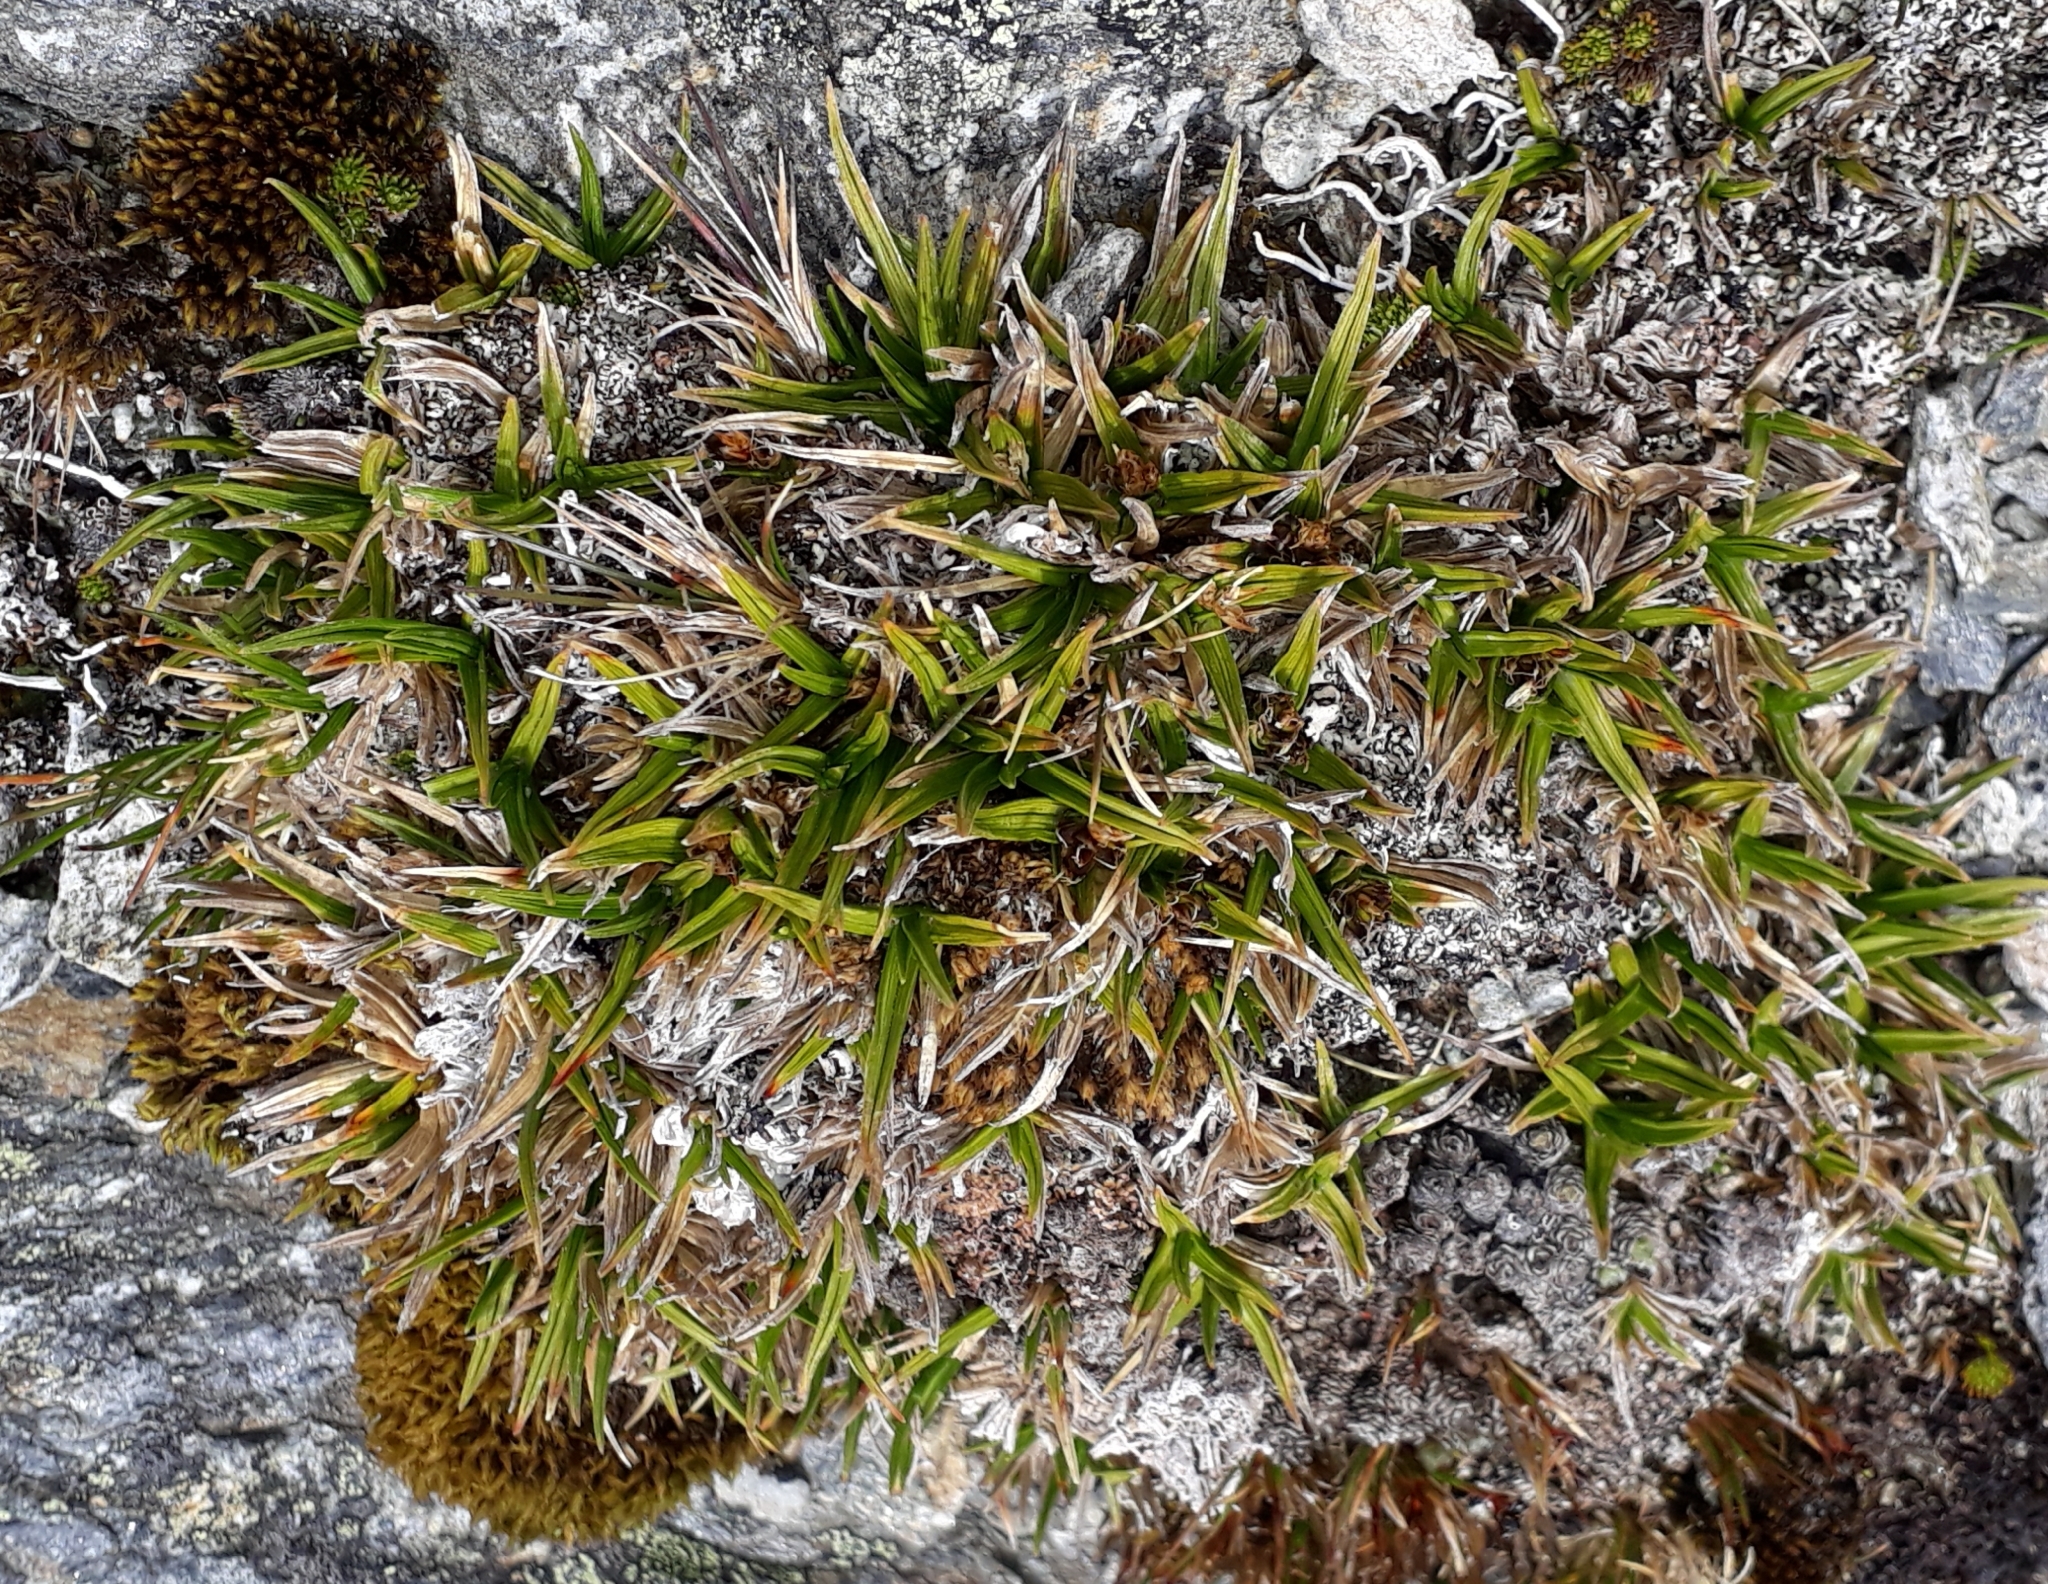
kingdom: Plantae
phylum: Tracheophyta
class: Liliopsida
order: Poales
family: Cyperaceae
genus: Carex
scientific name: Carex pterocarpa
